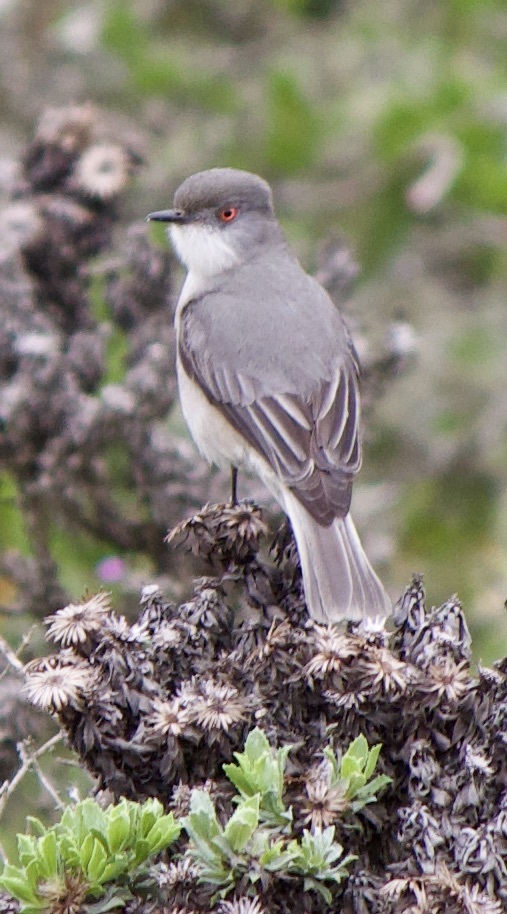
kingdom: Animalia
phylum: Chordata
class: Aves
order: Passeriformes
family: Tyrannidae
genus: Xolmis
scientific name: Xolmis pyrope
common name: Fire-eyed diucon
